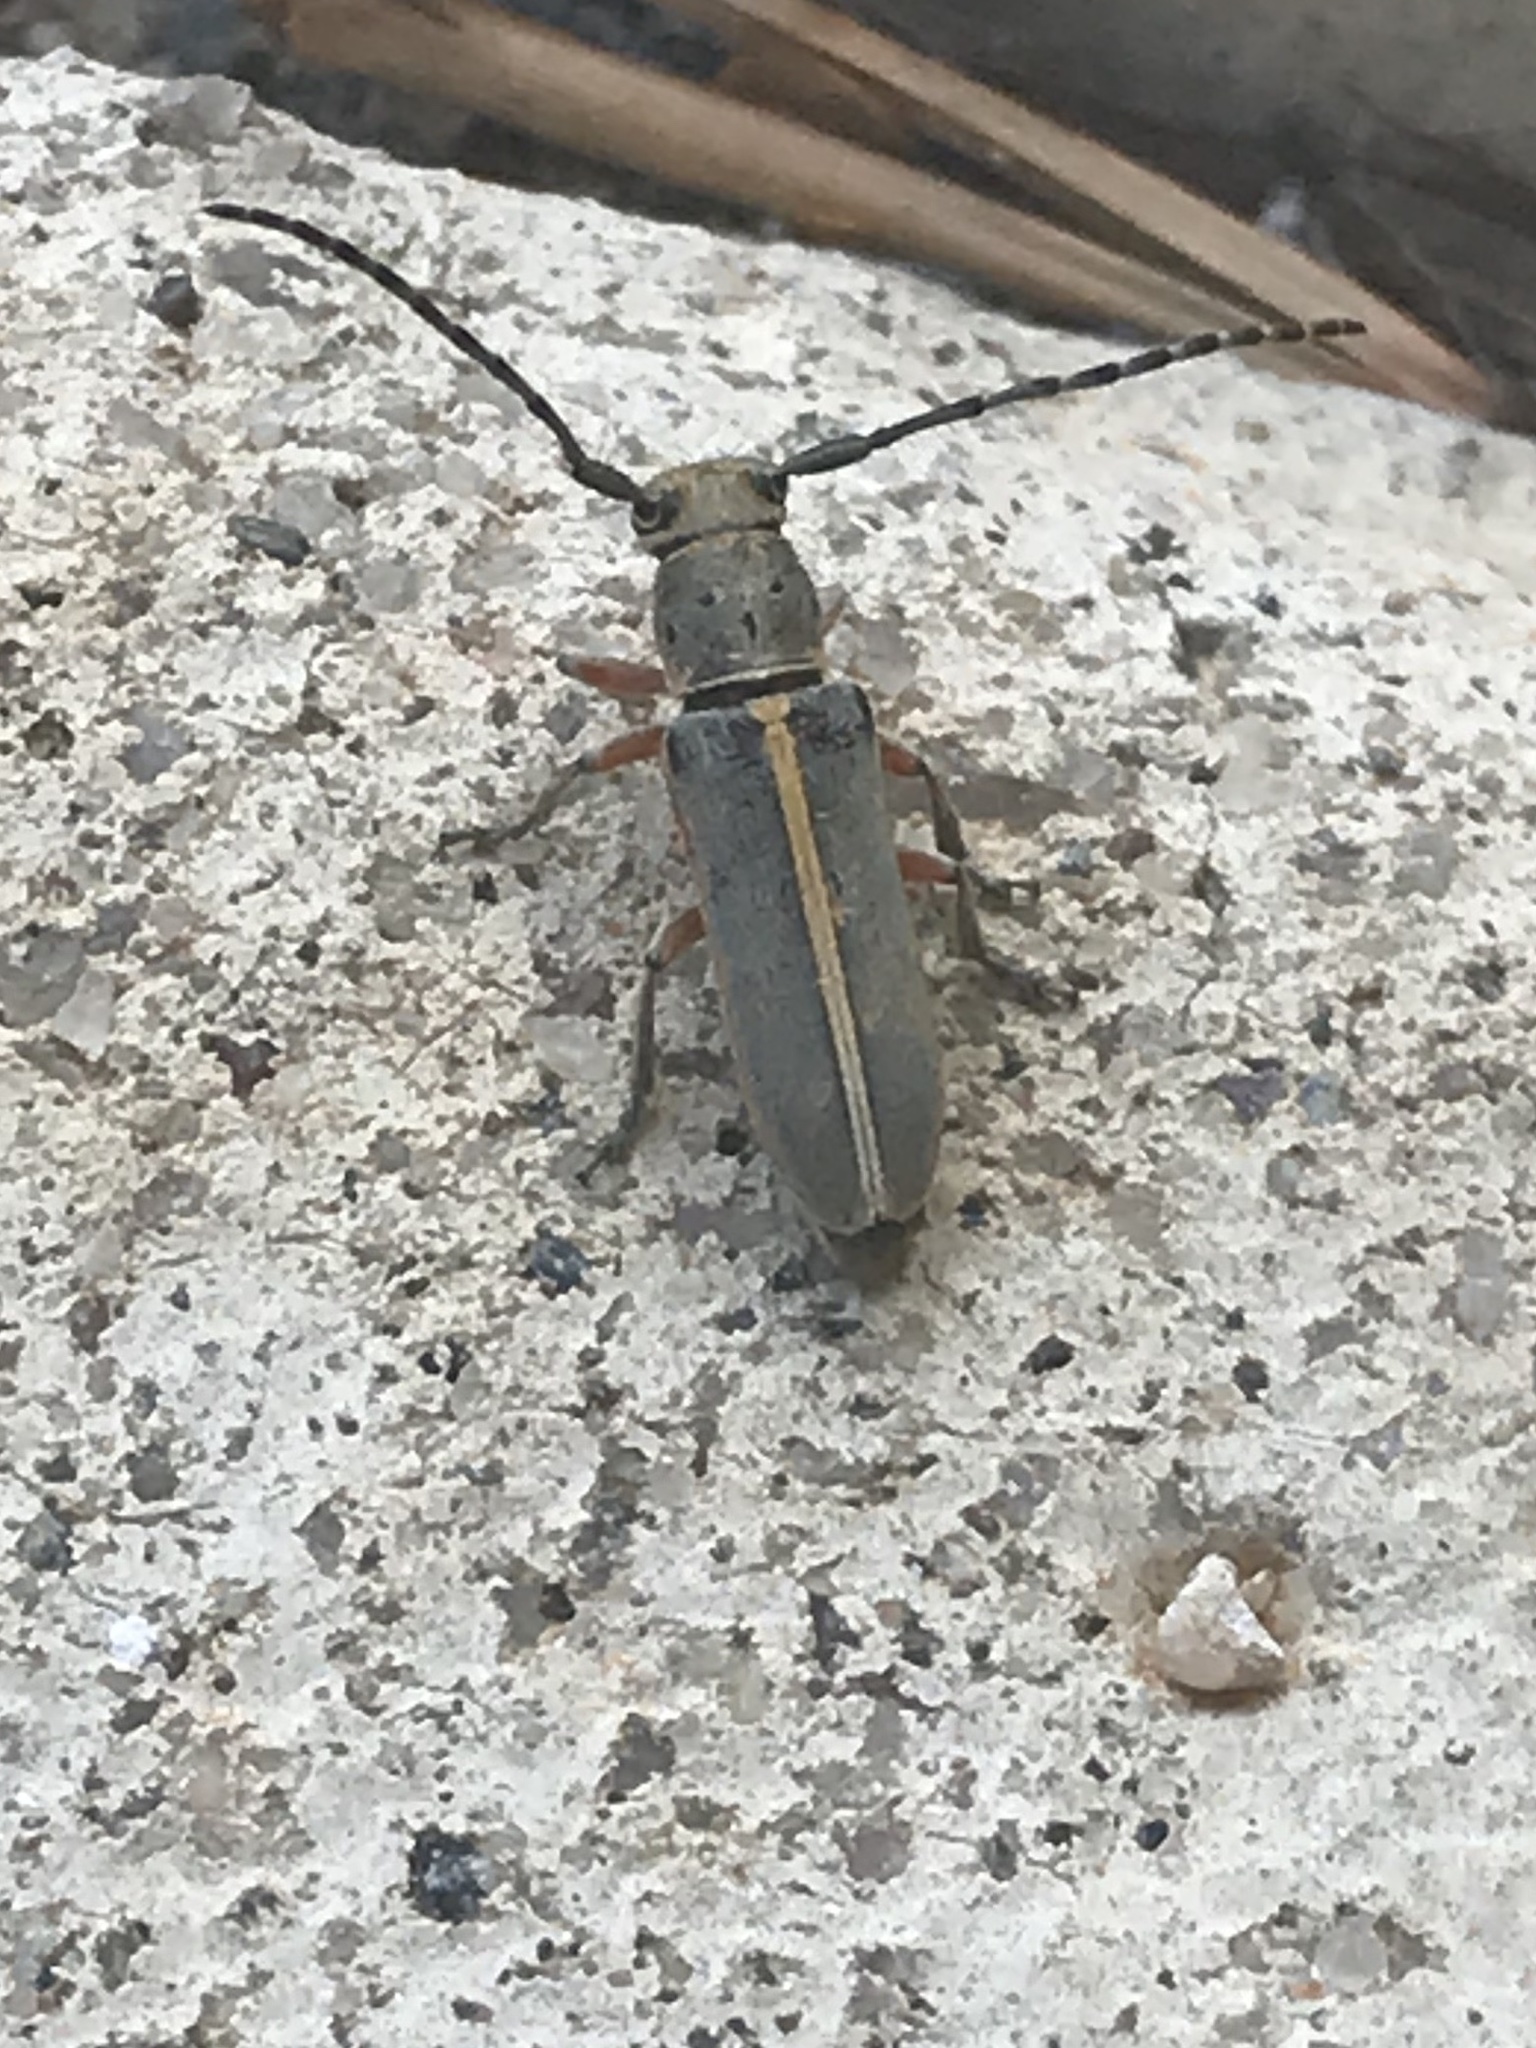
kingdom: Animalia
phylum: Arthropoda
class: Insecta
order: Coleoptera
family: Cerambycidae
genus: Mecas
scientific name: Mecas pergrata
